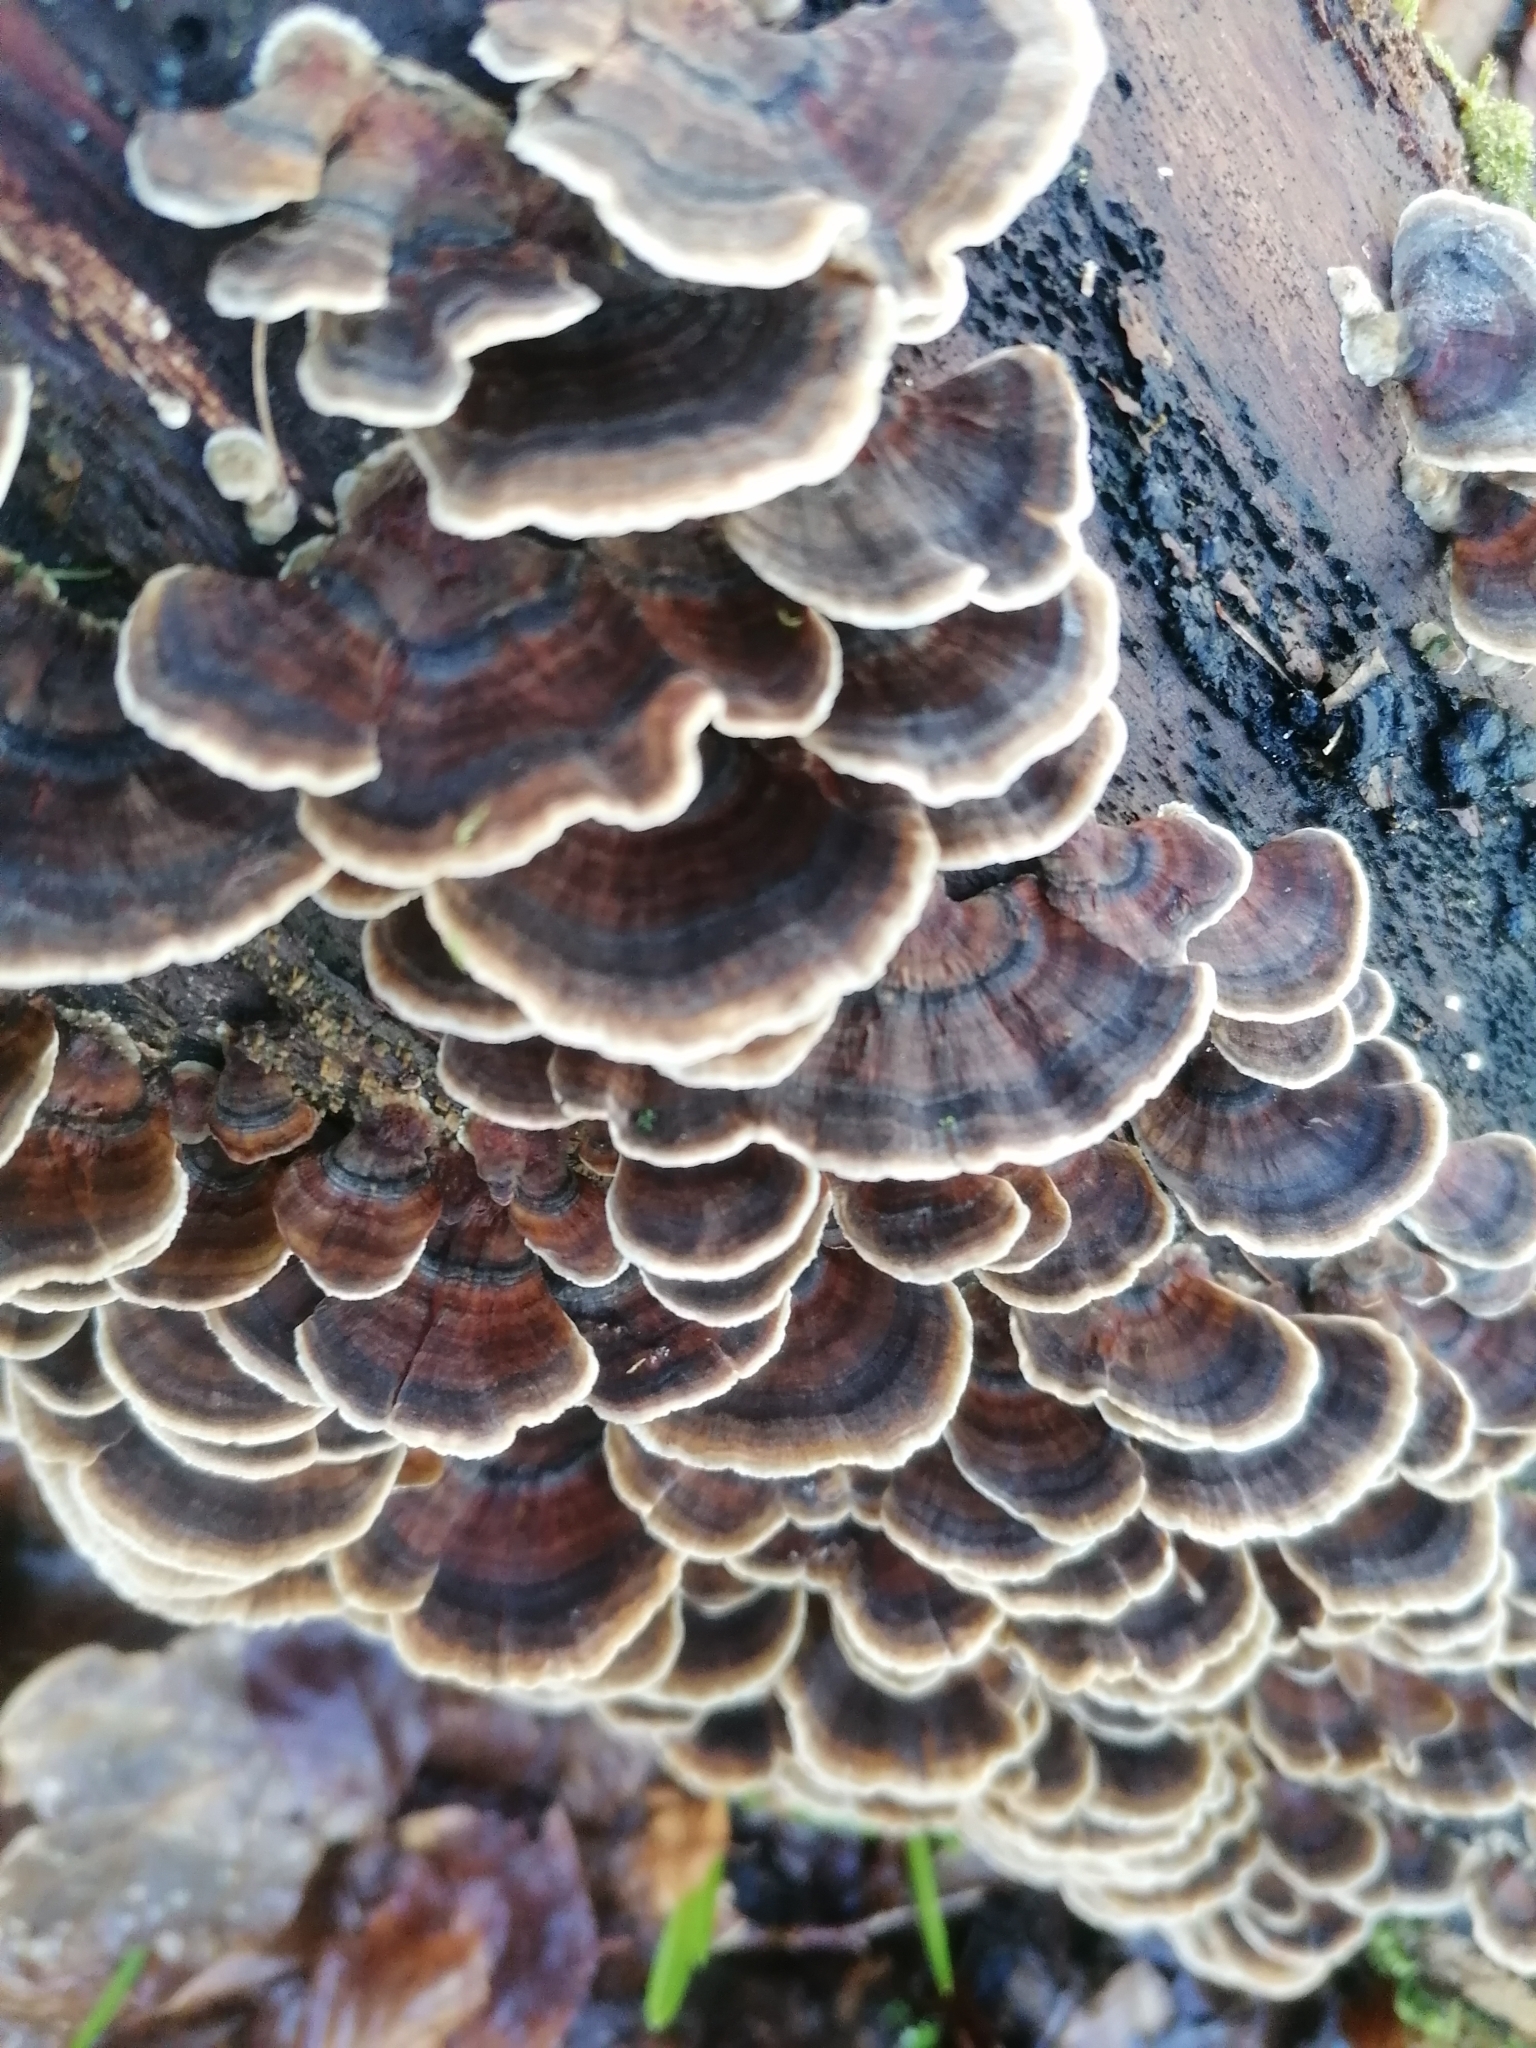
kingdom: Fungi
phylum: Basidiomycota
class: Agaricomycetes
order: Polyporales
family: Polyporaceae
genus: Trametes
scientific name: Trametes versicolor
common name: Turkeytail
